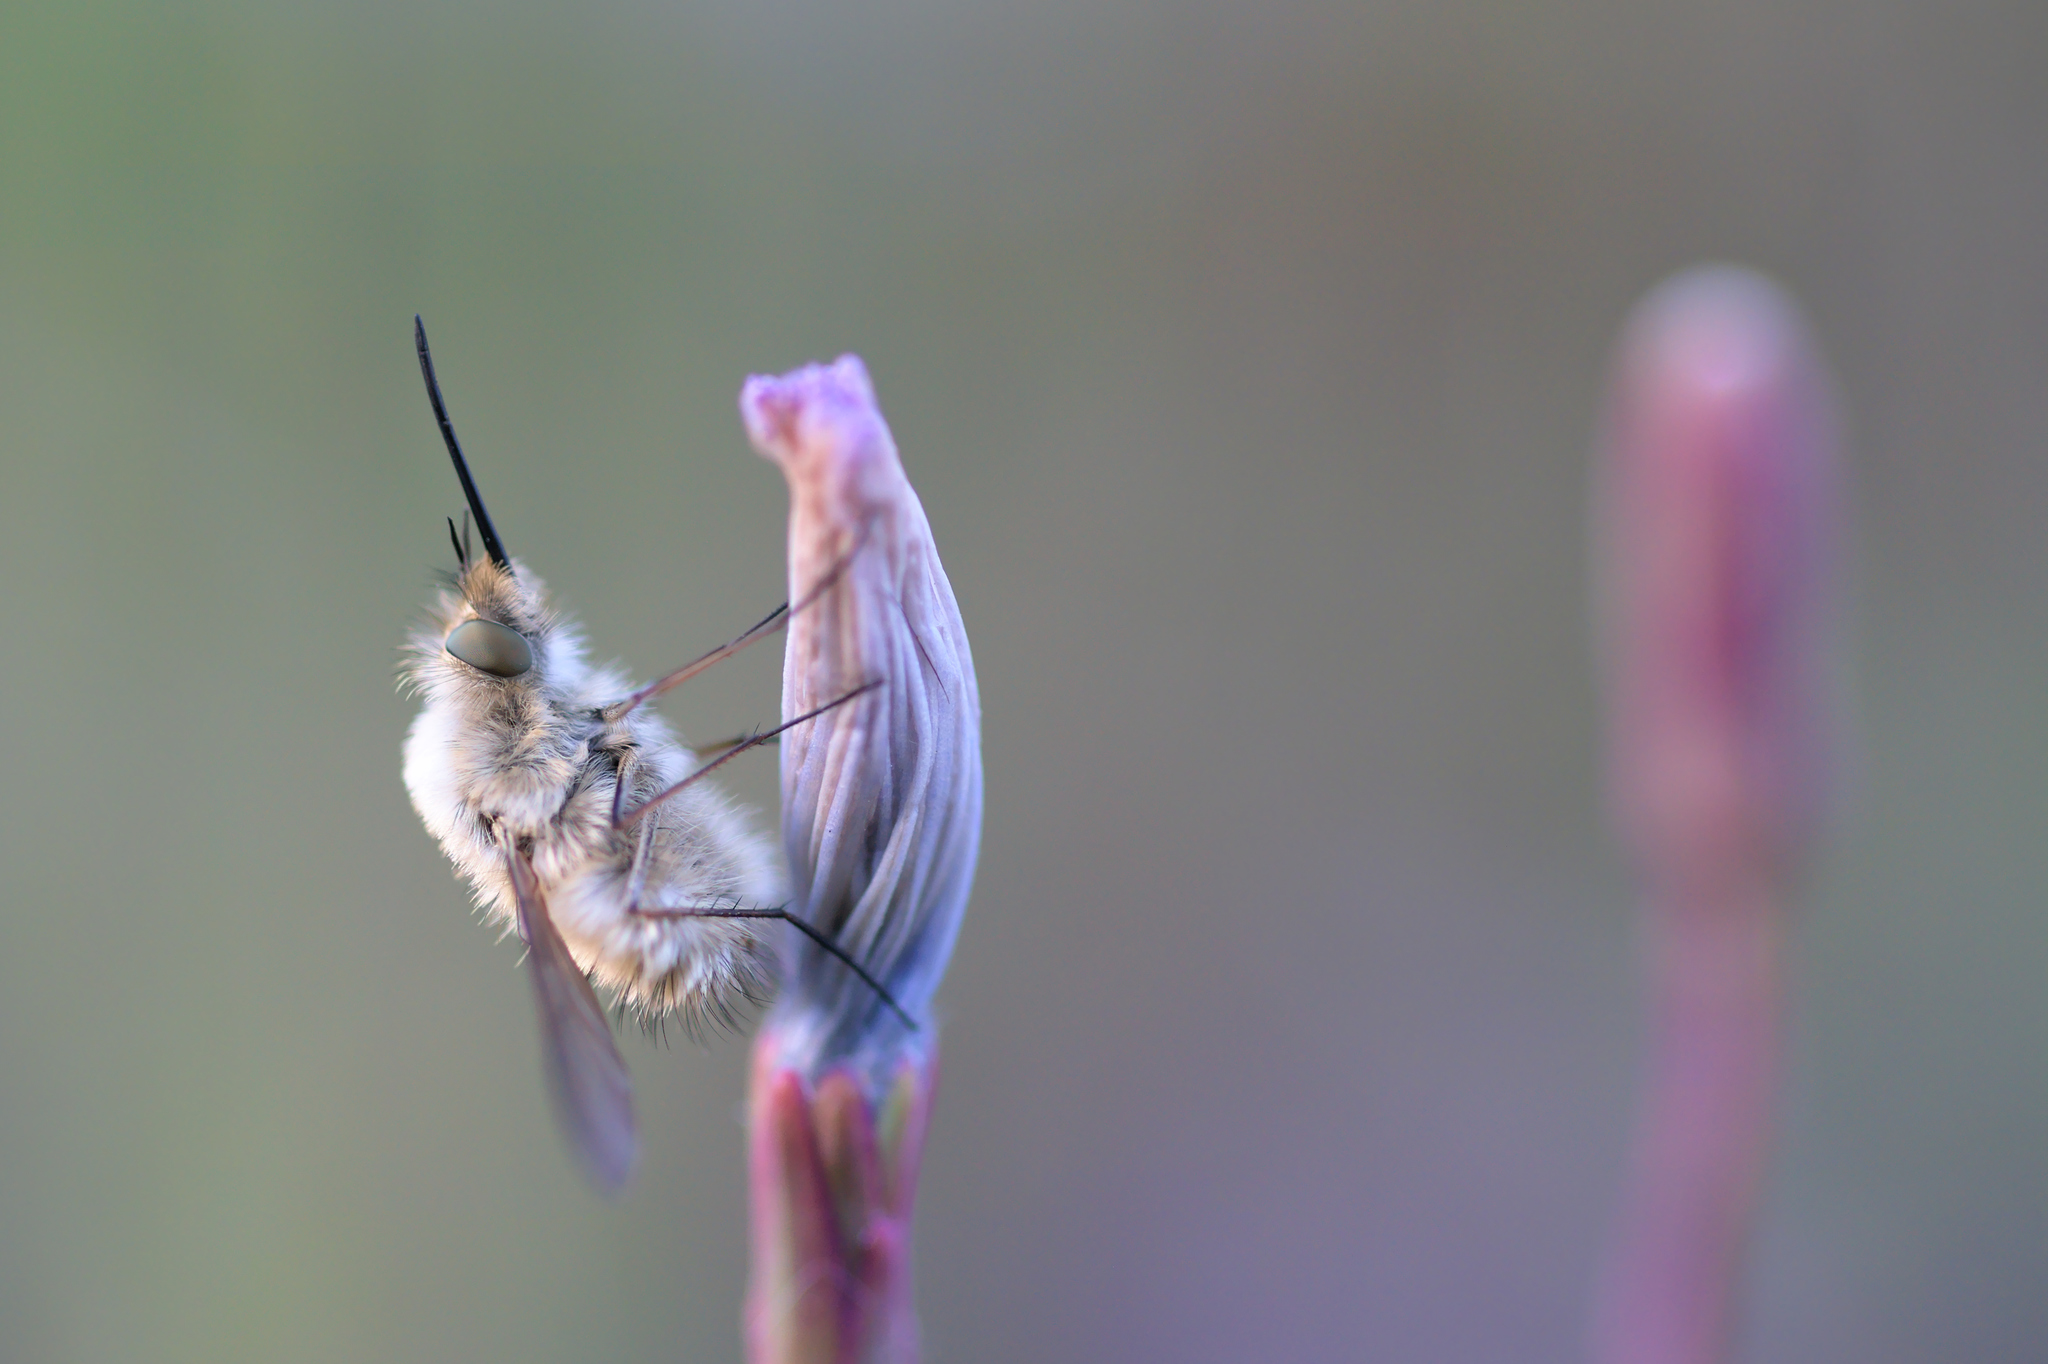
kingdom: Animalia
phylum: Arthropoda
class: Insecta
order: Diptera
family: Bombyliidae
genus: Bombylius
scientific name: Bombylius venosus
